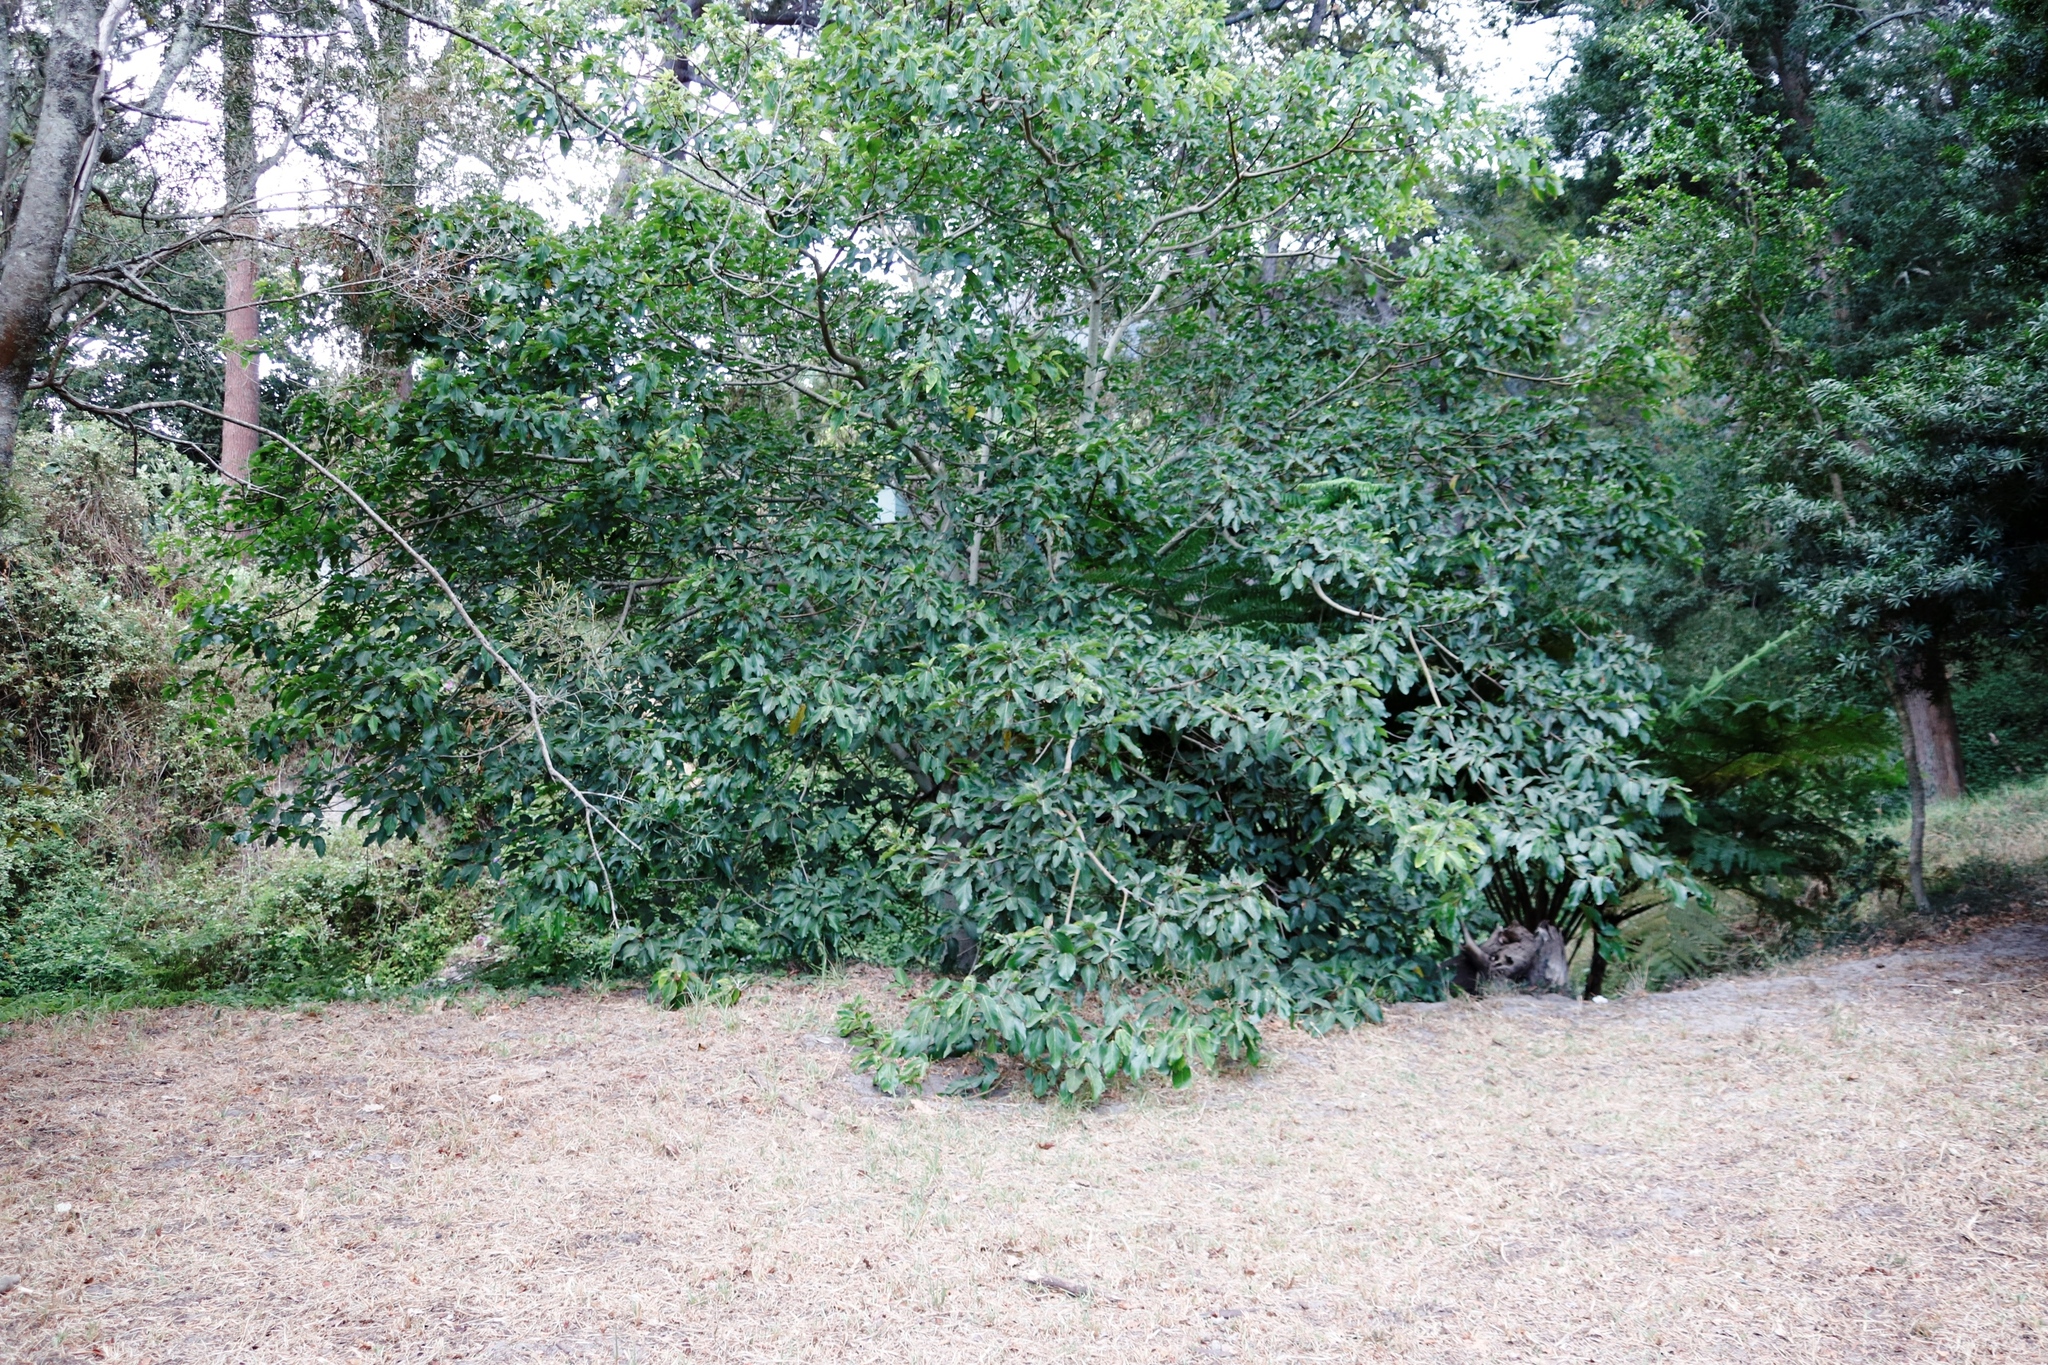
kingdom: Plantae
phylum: Tracheophyta
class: Magnoliopsida
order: Rosales
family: Moraceae
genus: Ficus
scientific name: Ficus sur
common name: Cape fig
